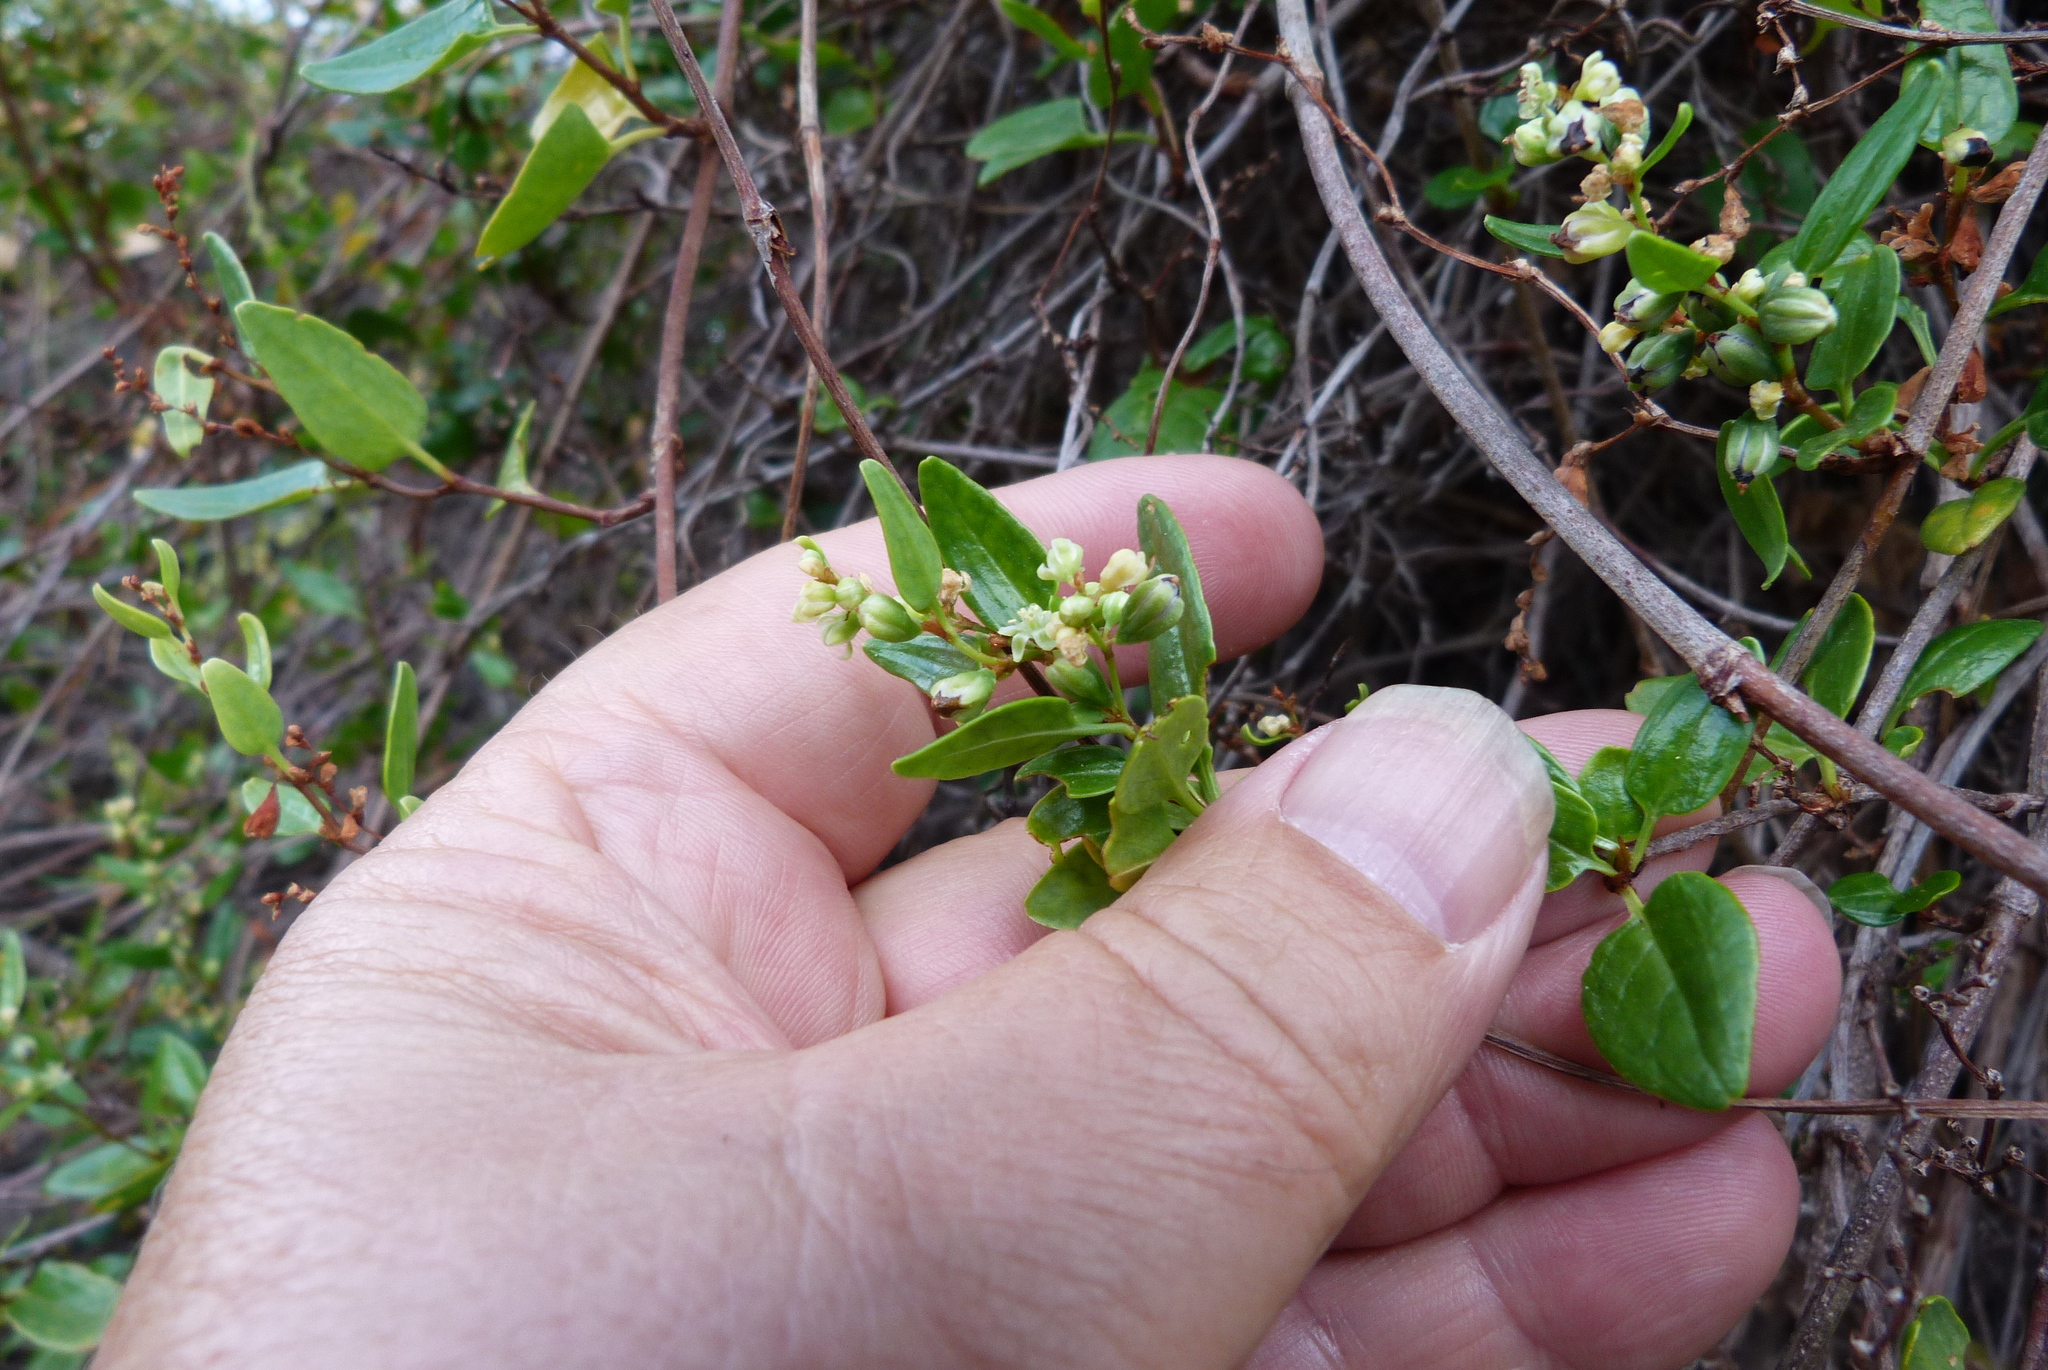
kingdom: Plantae
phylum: Tracheophyta
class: Magnoliopsida
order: Caryophyllales
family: Polygonaceae
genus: Muehlenbeckia
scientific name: Muehlenbeckia gunnii
